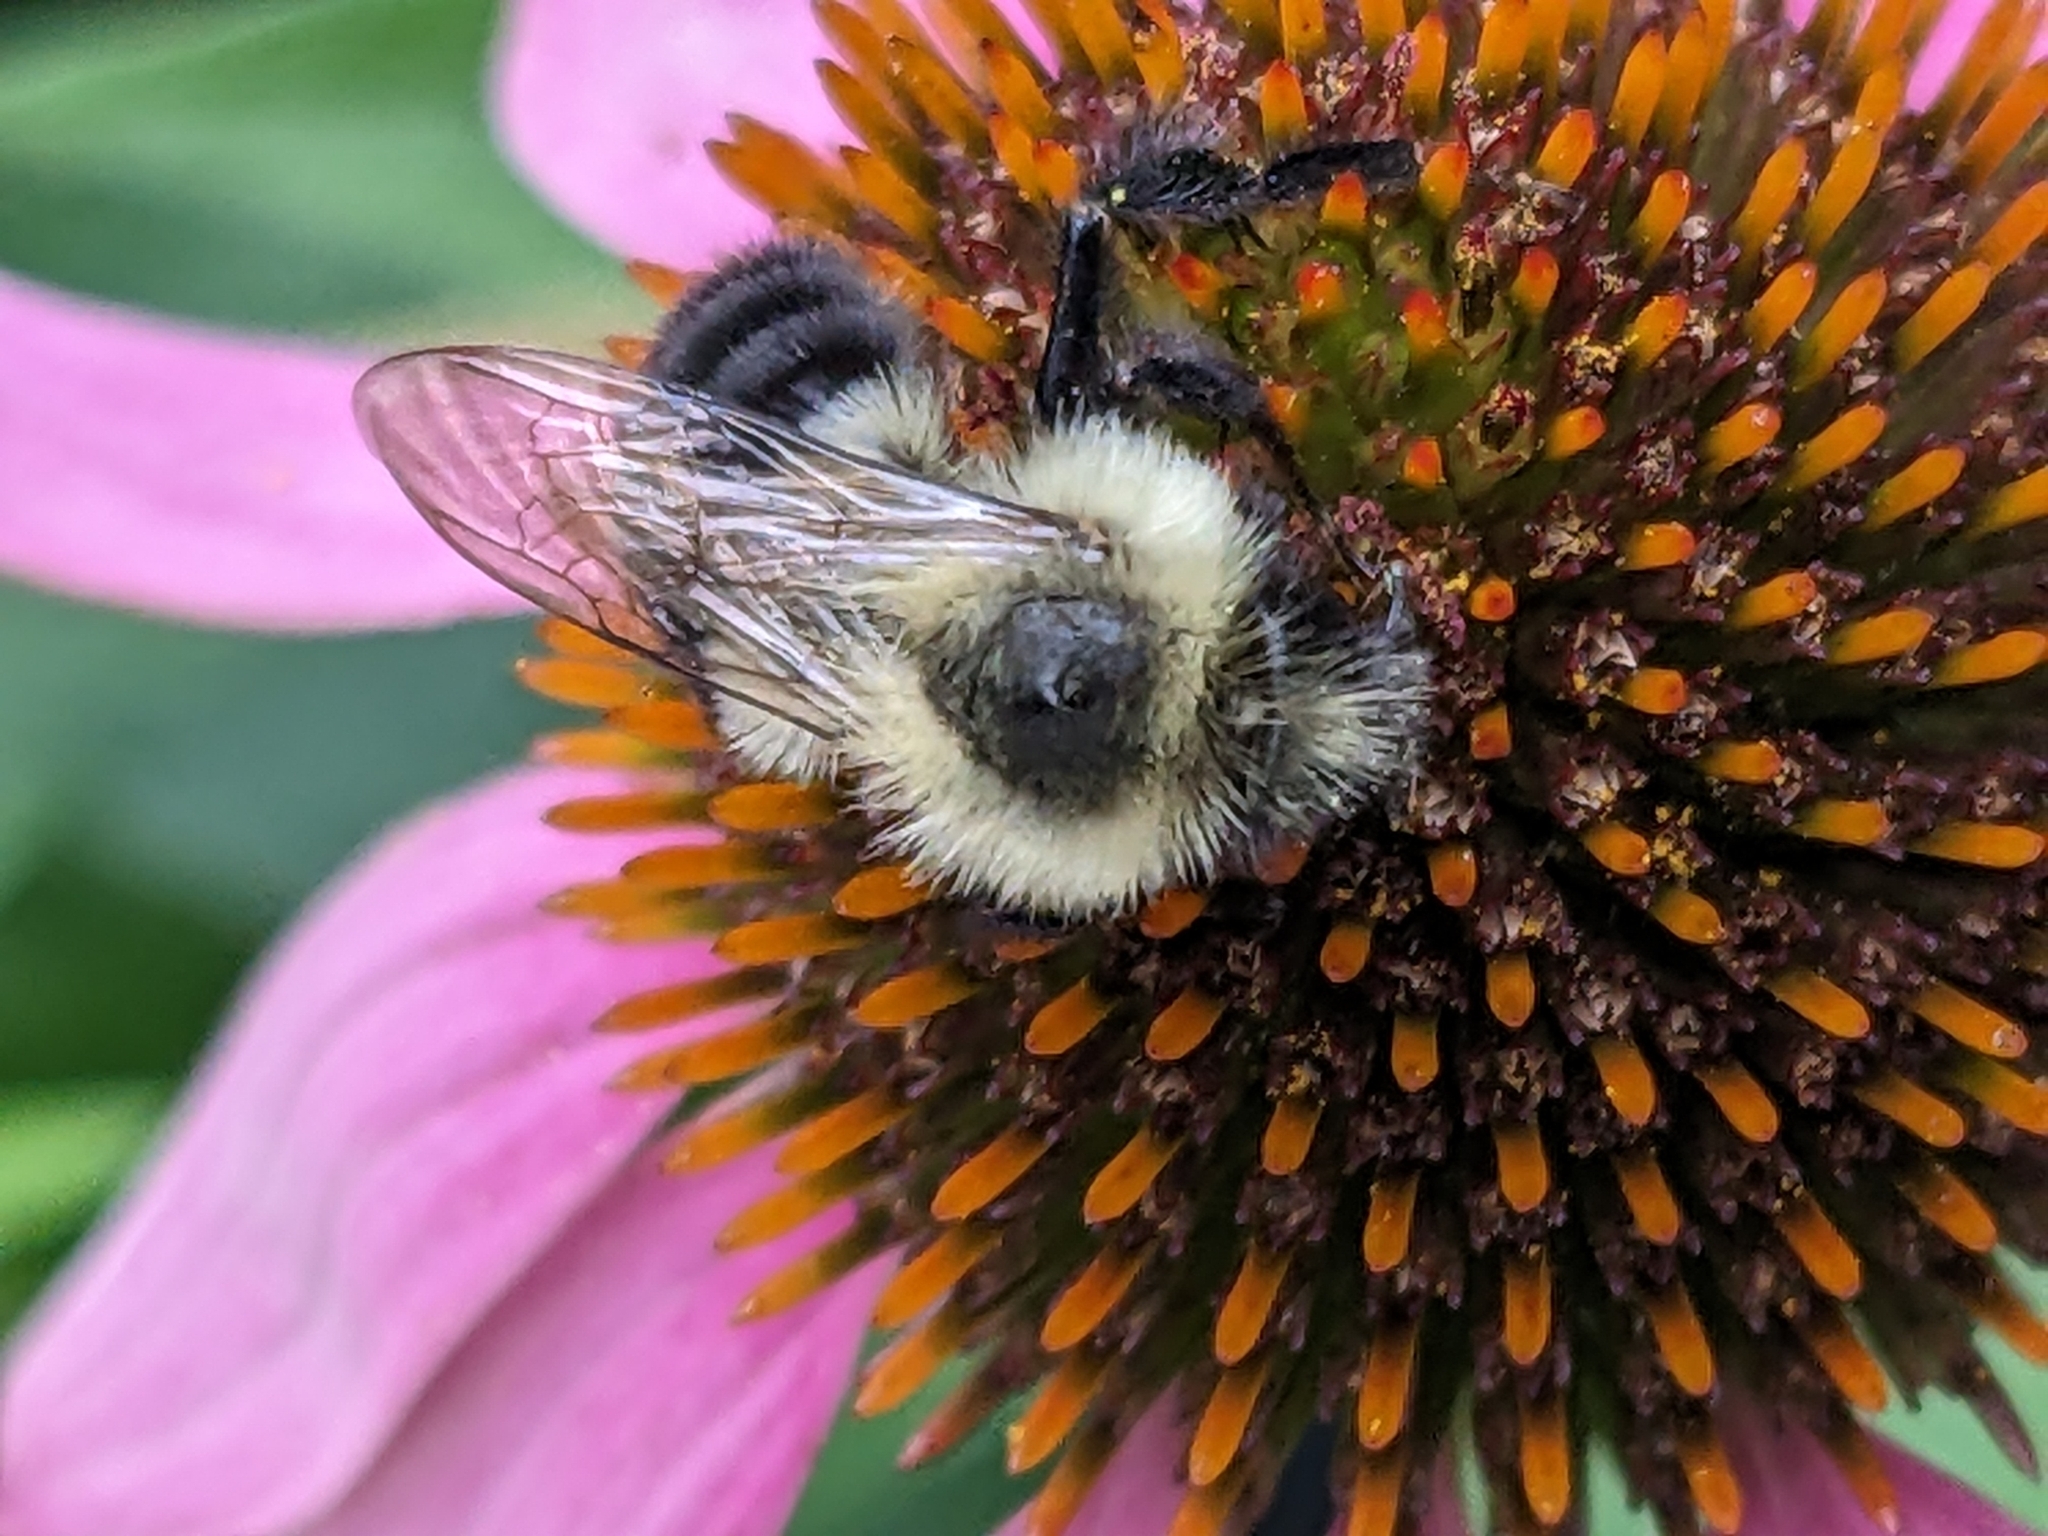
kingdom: Animalia
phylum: Arthropoda
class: Insecta
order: Hymenoptera
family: Apidae
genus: Bombus
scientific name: Bombus impatiens
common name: Common eastern bumble bee
